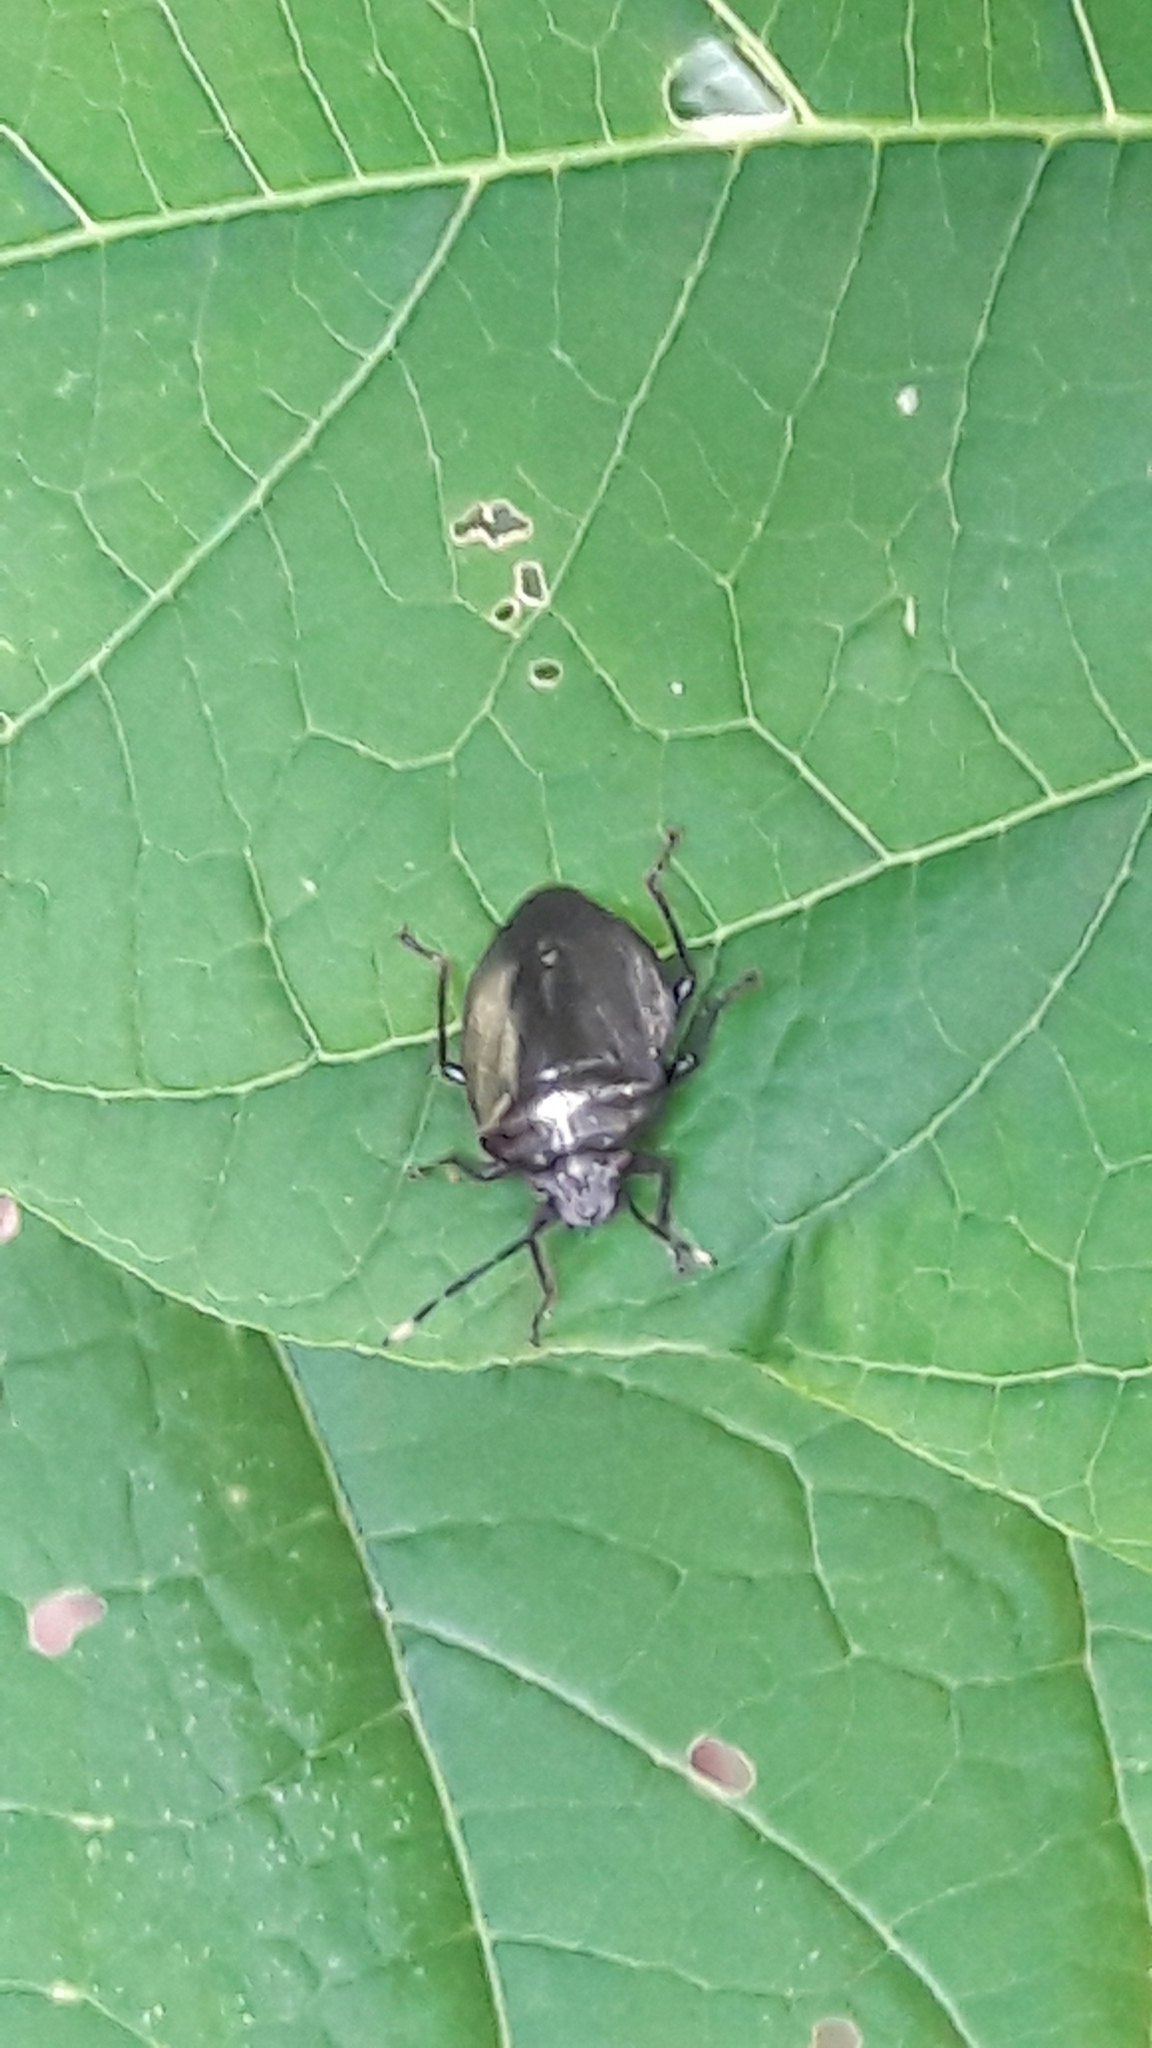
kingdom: Animalia
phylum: Arthropoda
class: Insecta
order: Hemiptera
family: Pentatomidae
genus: Antiteuchus
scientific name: Antiteuchus tripterus
